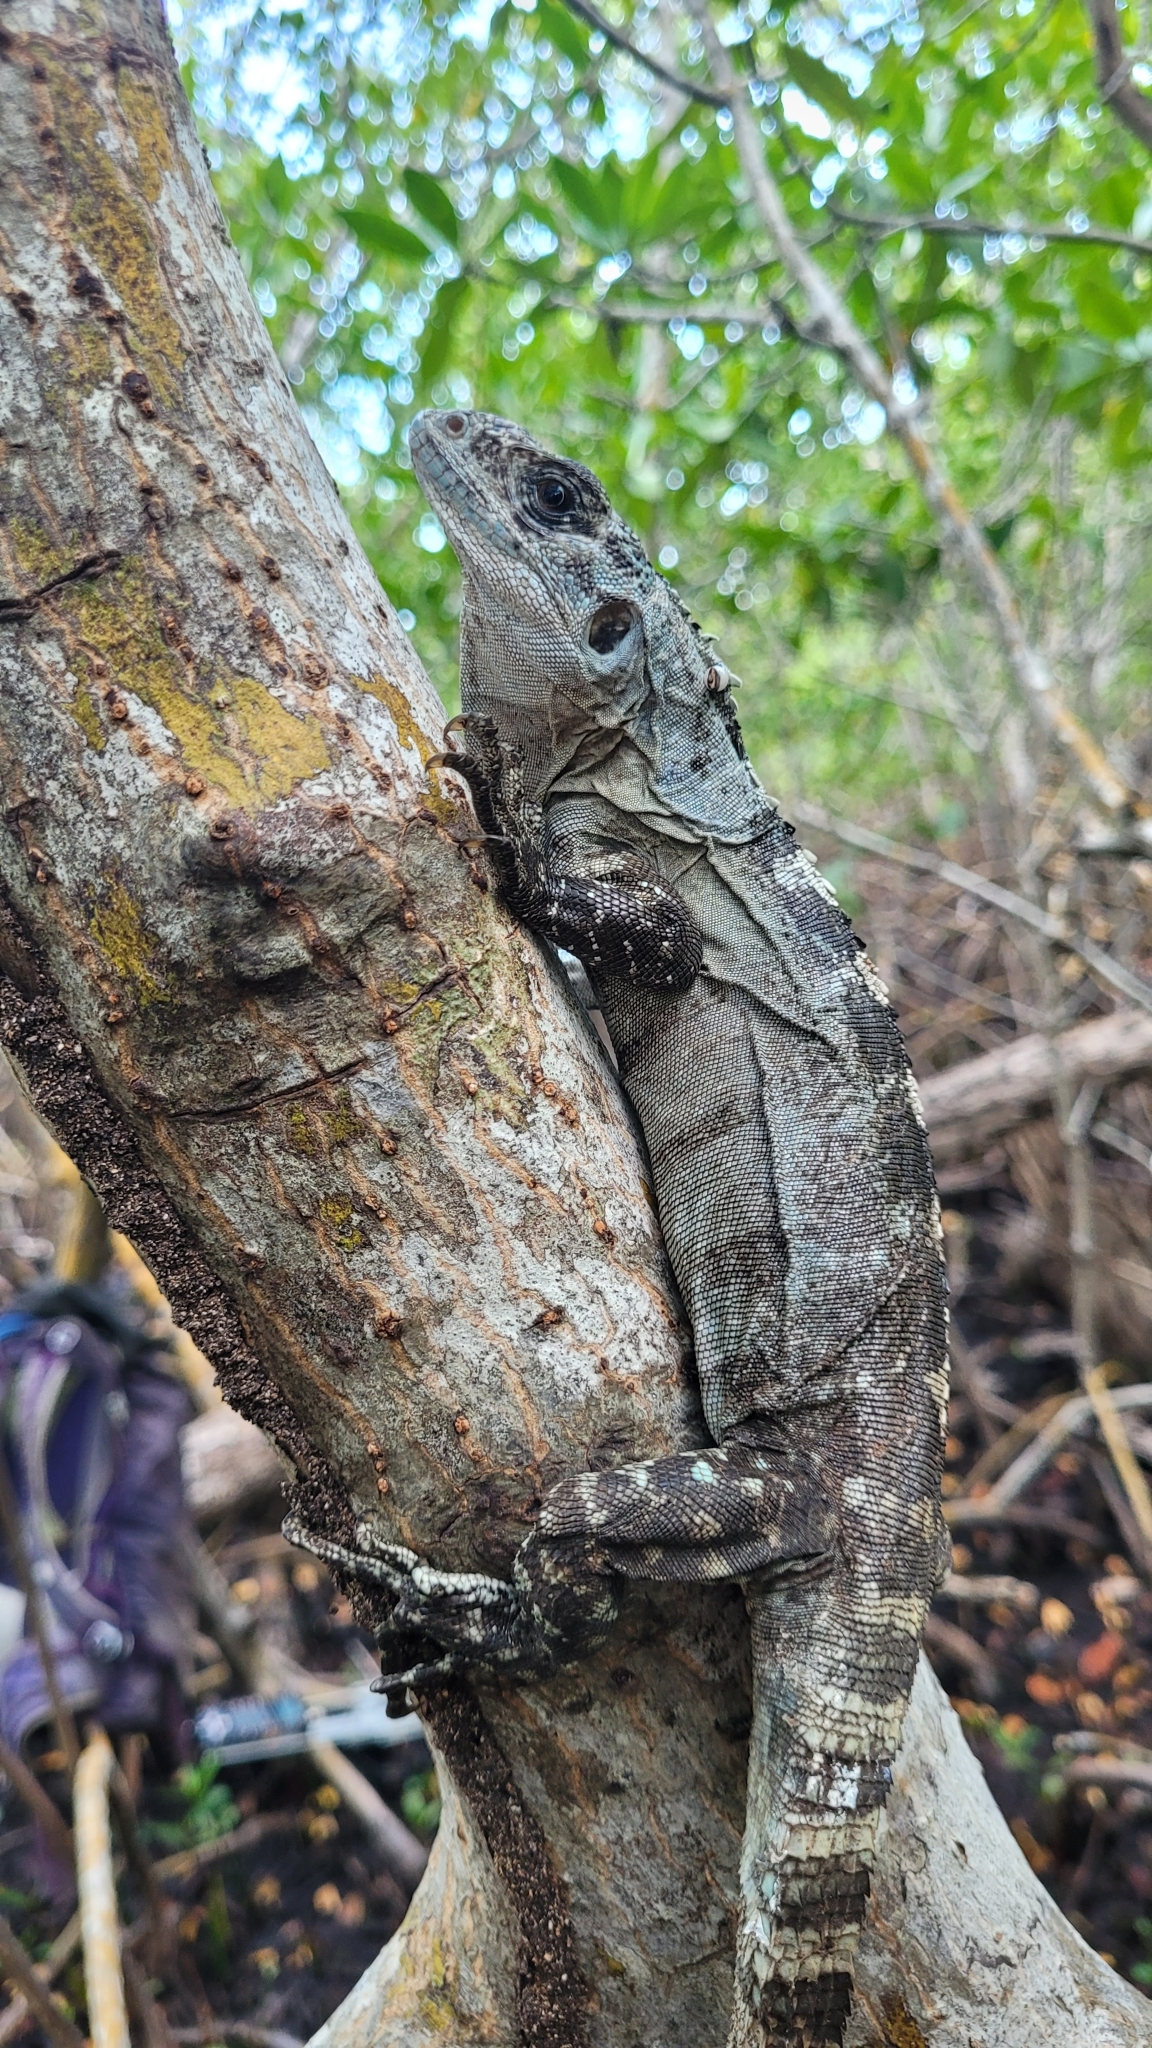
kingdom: Animalia
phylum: Chordata
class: Squamata
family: Iguanidae
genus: Ctenosaura
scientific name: Ctenosaura bakeri
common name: Utila spiny-tailed iguana
